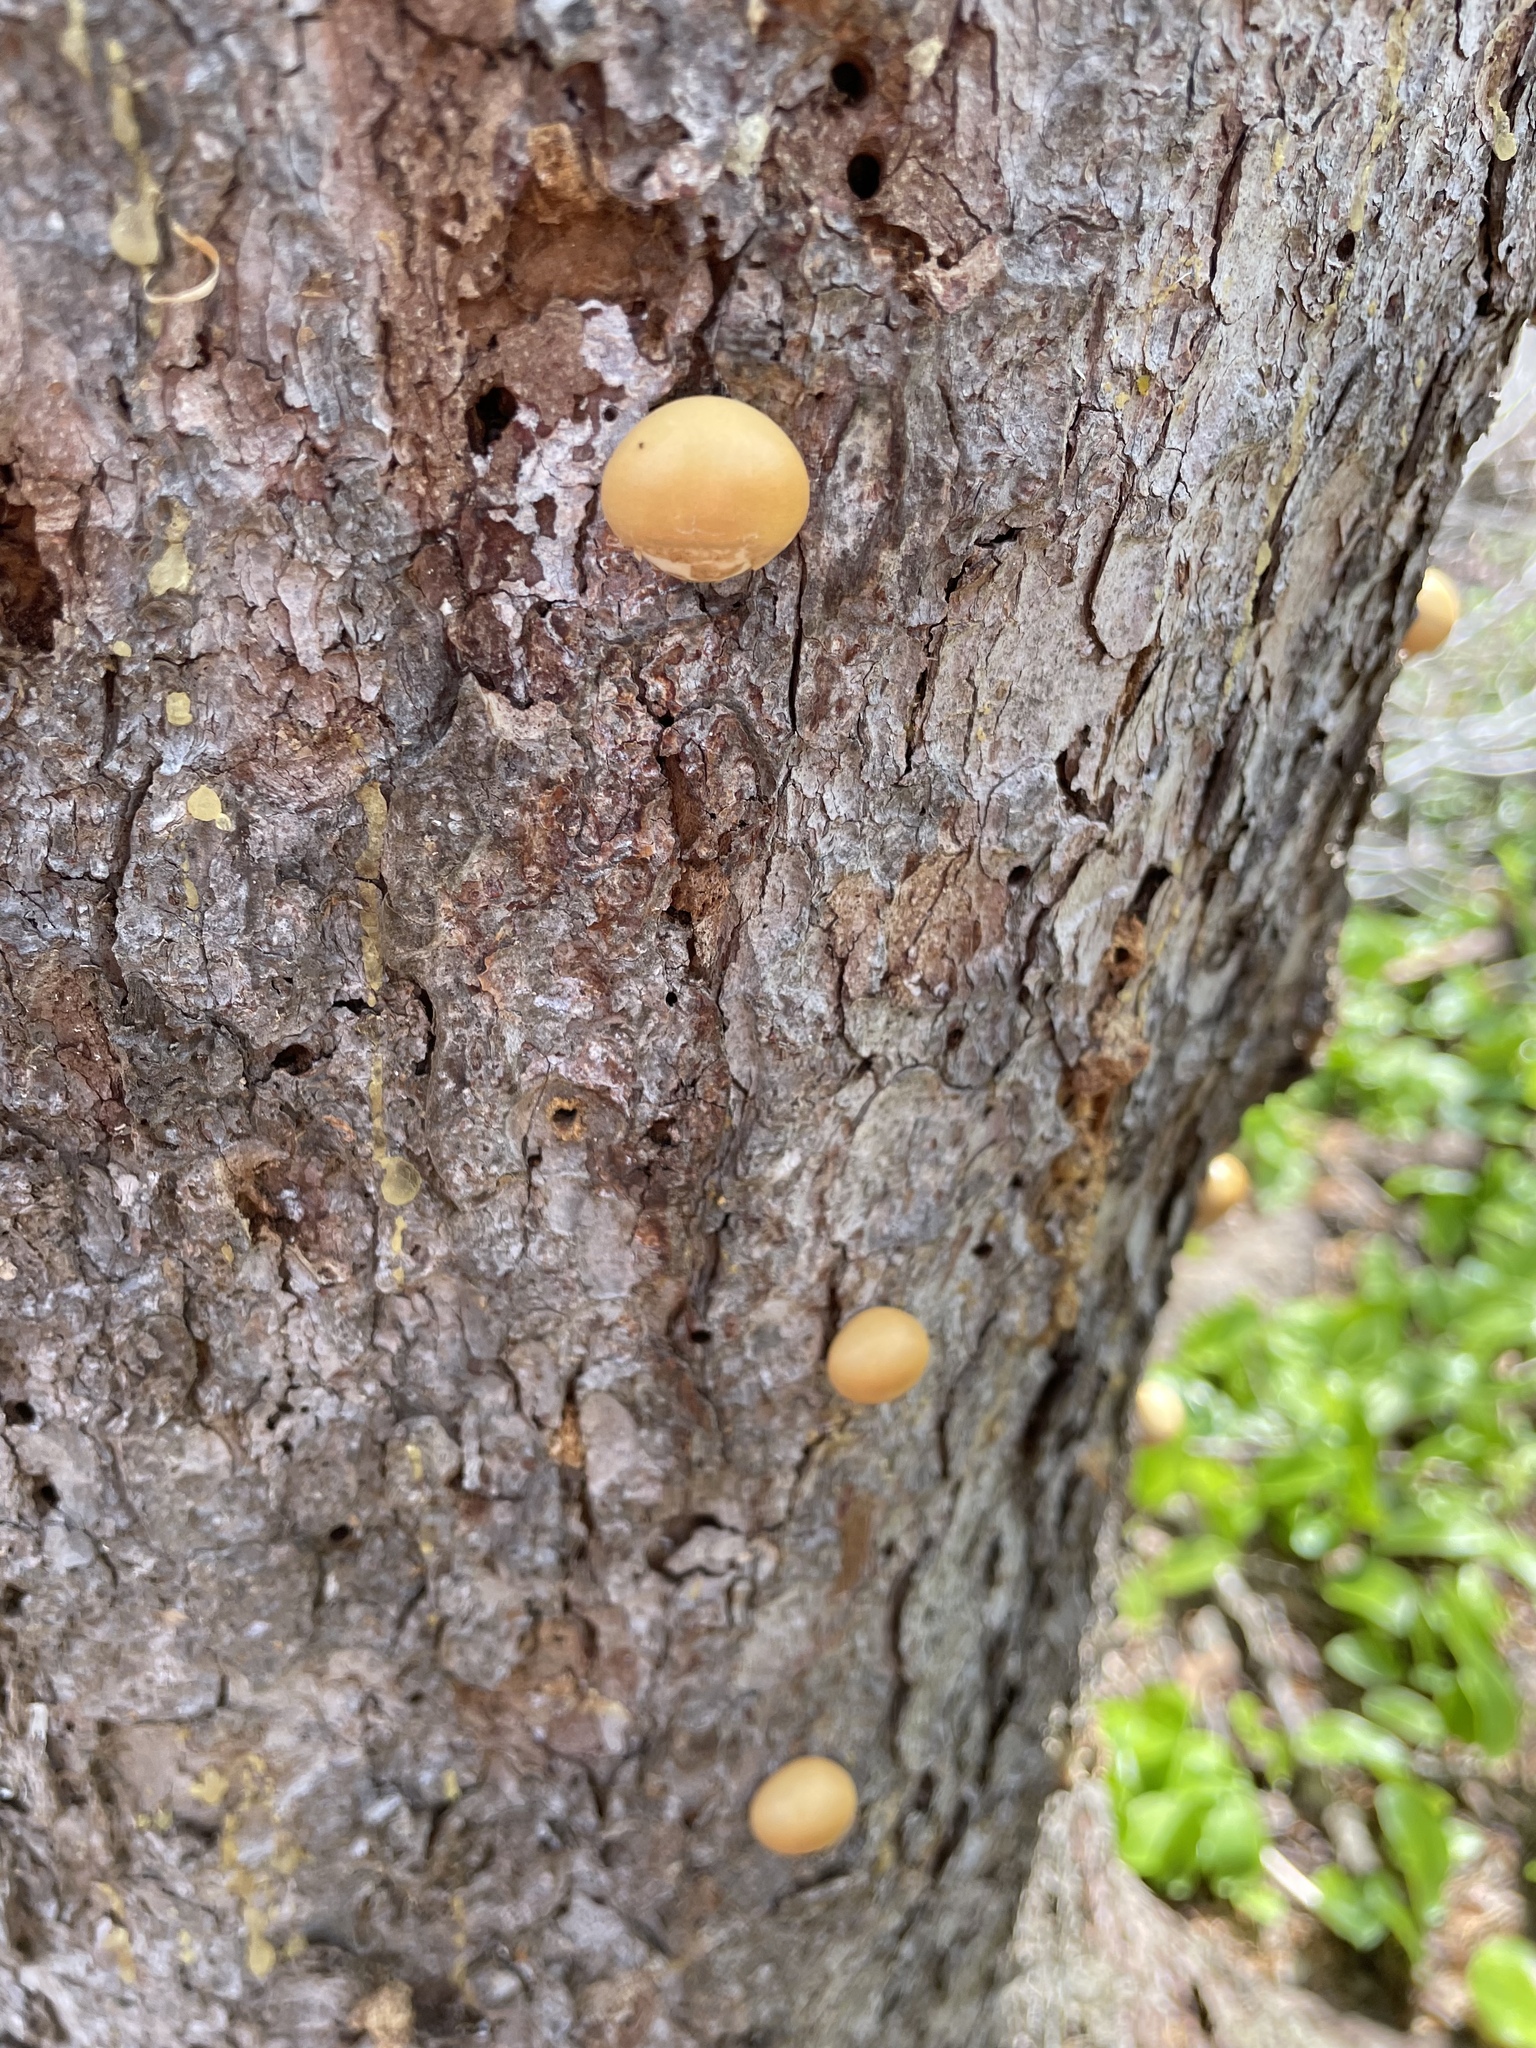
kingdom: Fungi
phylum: Basidiomycota
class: Agaricomycetes
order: Polyporales
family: Polyporaceae
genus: Cryptoporus
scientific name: Cryptoporus volvatus
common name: Veiled polypore
